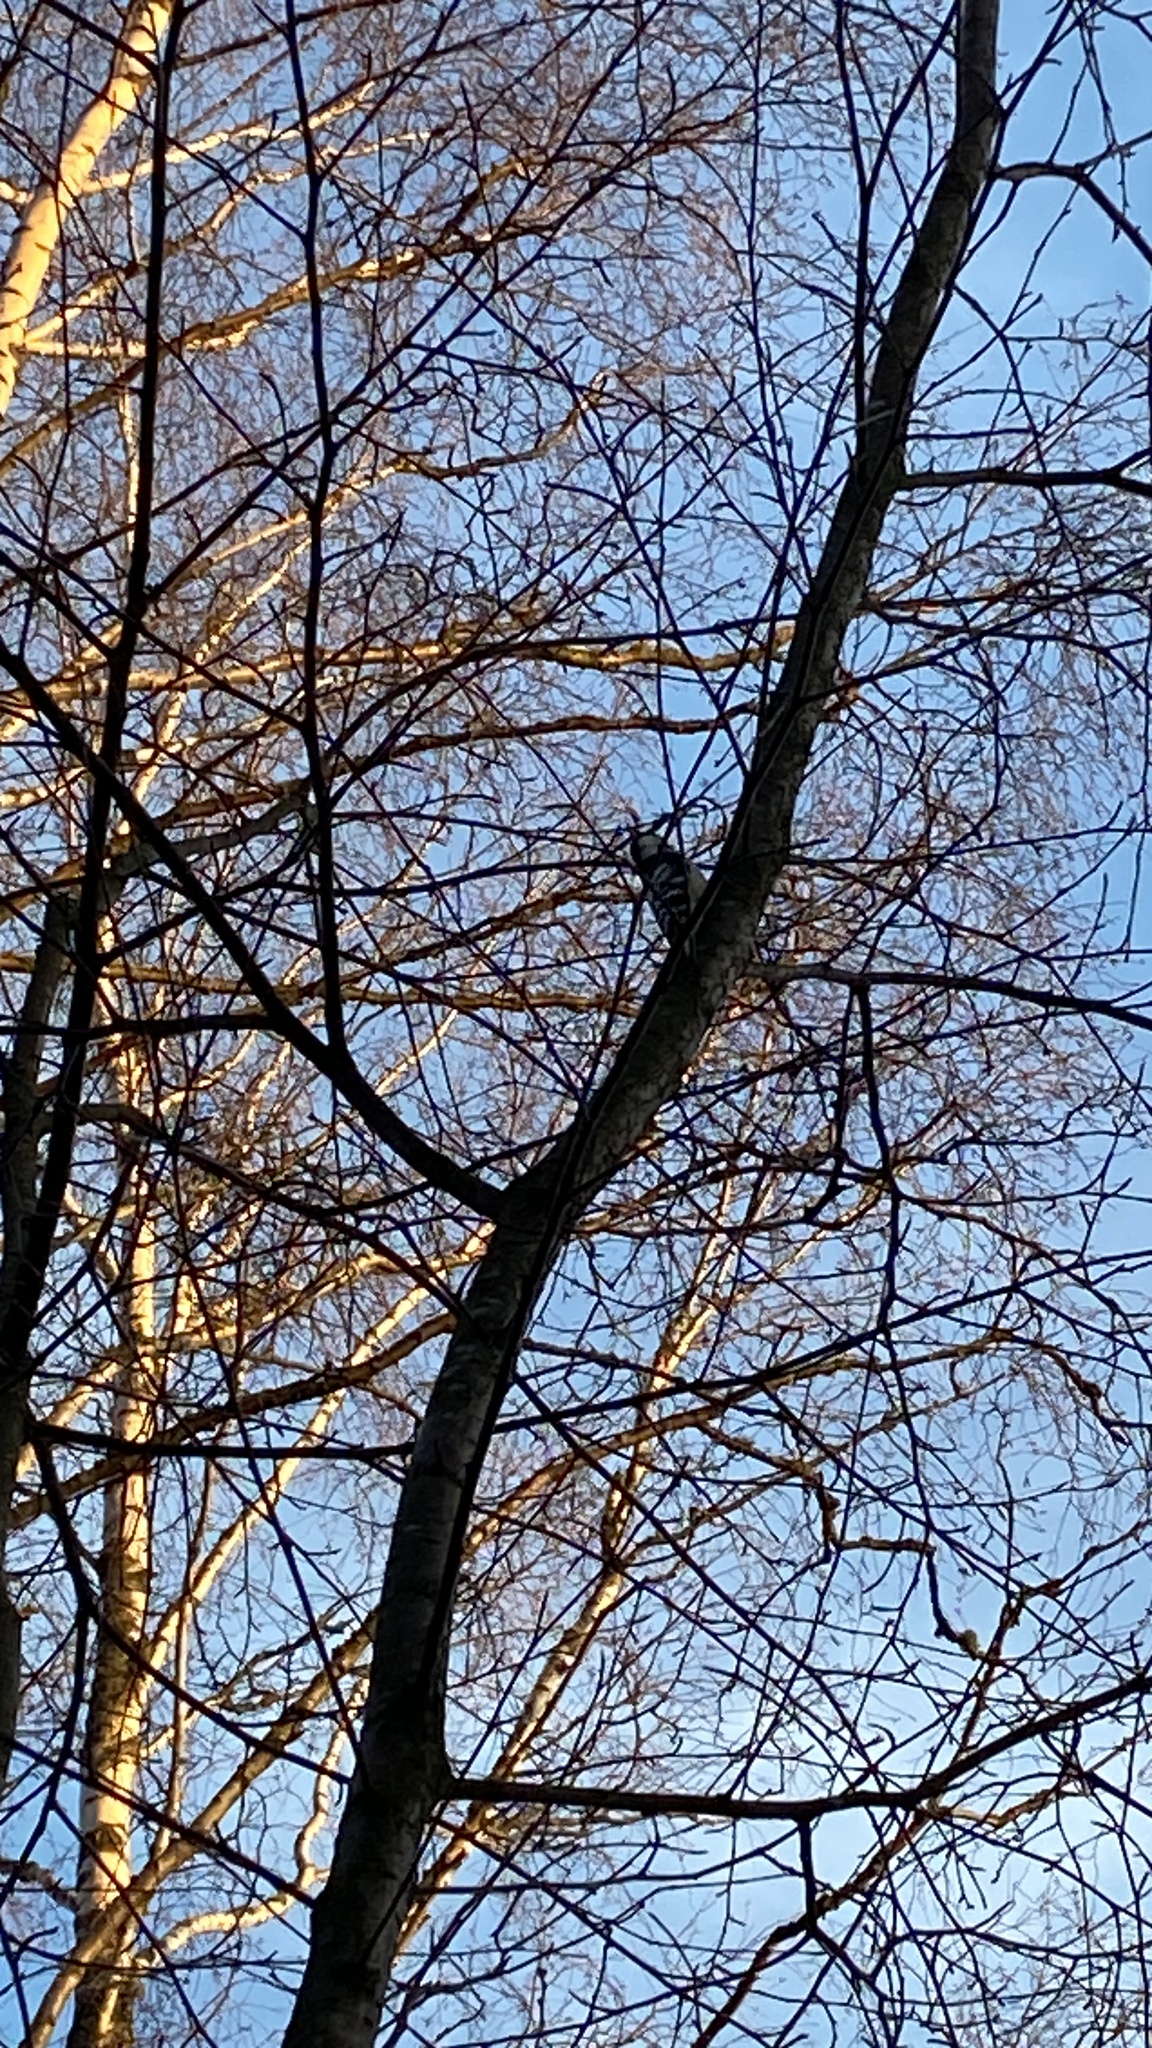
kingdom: Animalia
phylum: Chordata
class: Aves
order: Piciformes
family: Picidae
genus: Dryobates
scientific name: Dryobates minor
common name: Lesser spotted woodpecker
